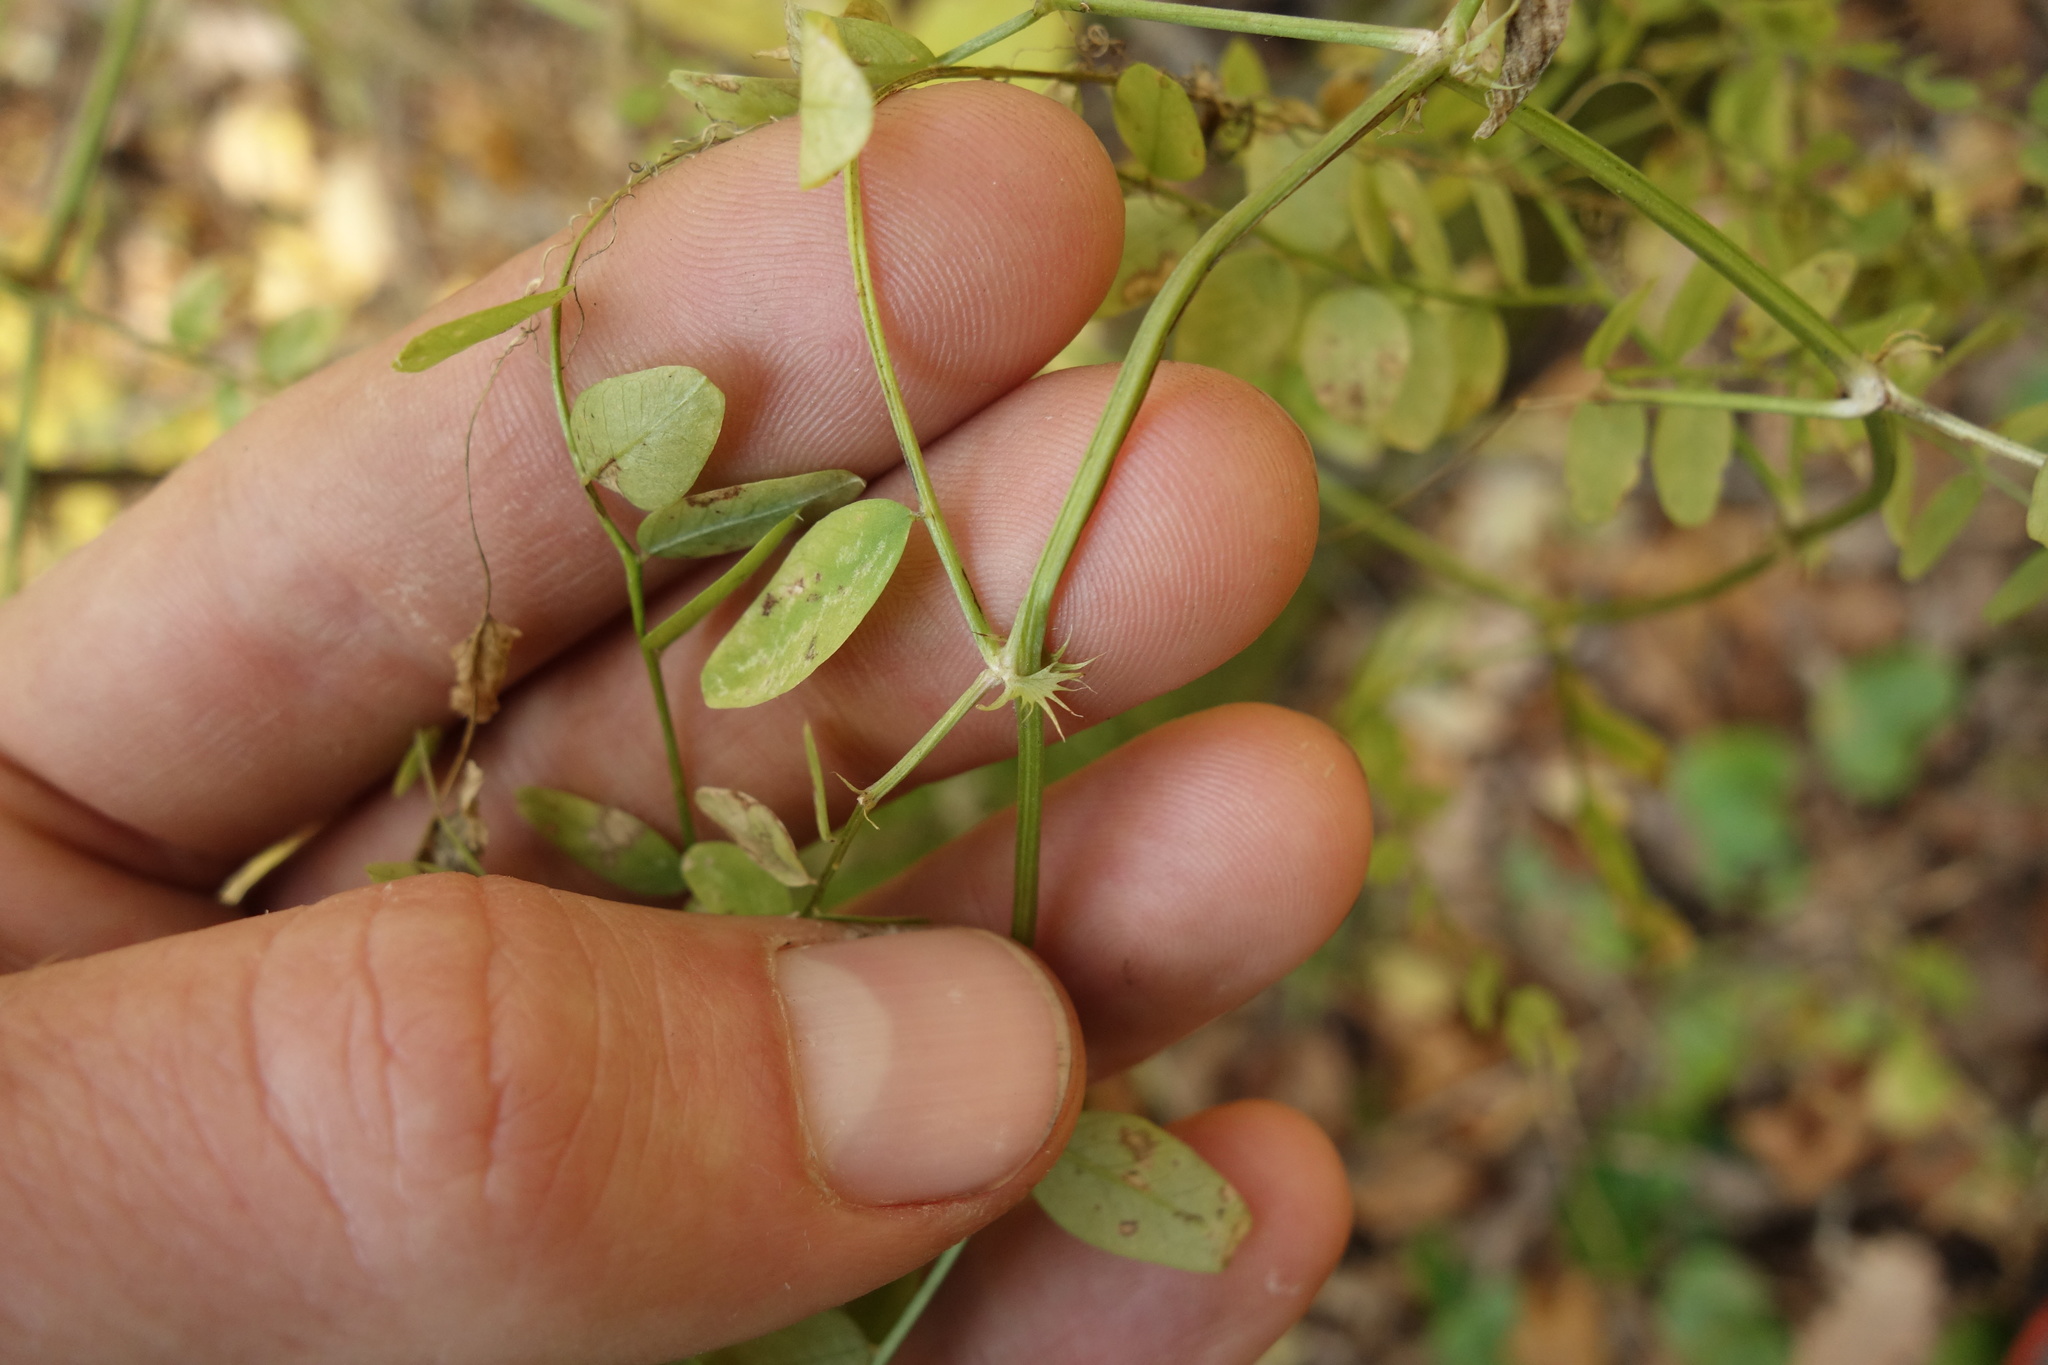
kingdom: Plantae
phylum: Tracheophyta
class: Magnoliopsida
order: Fabales
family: Fabaceae
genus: Vicia
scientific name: Vicia sylvatica
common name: Wood vetch
